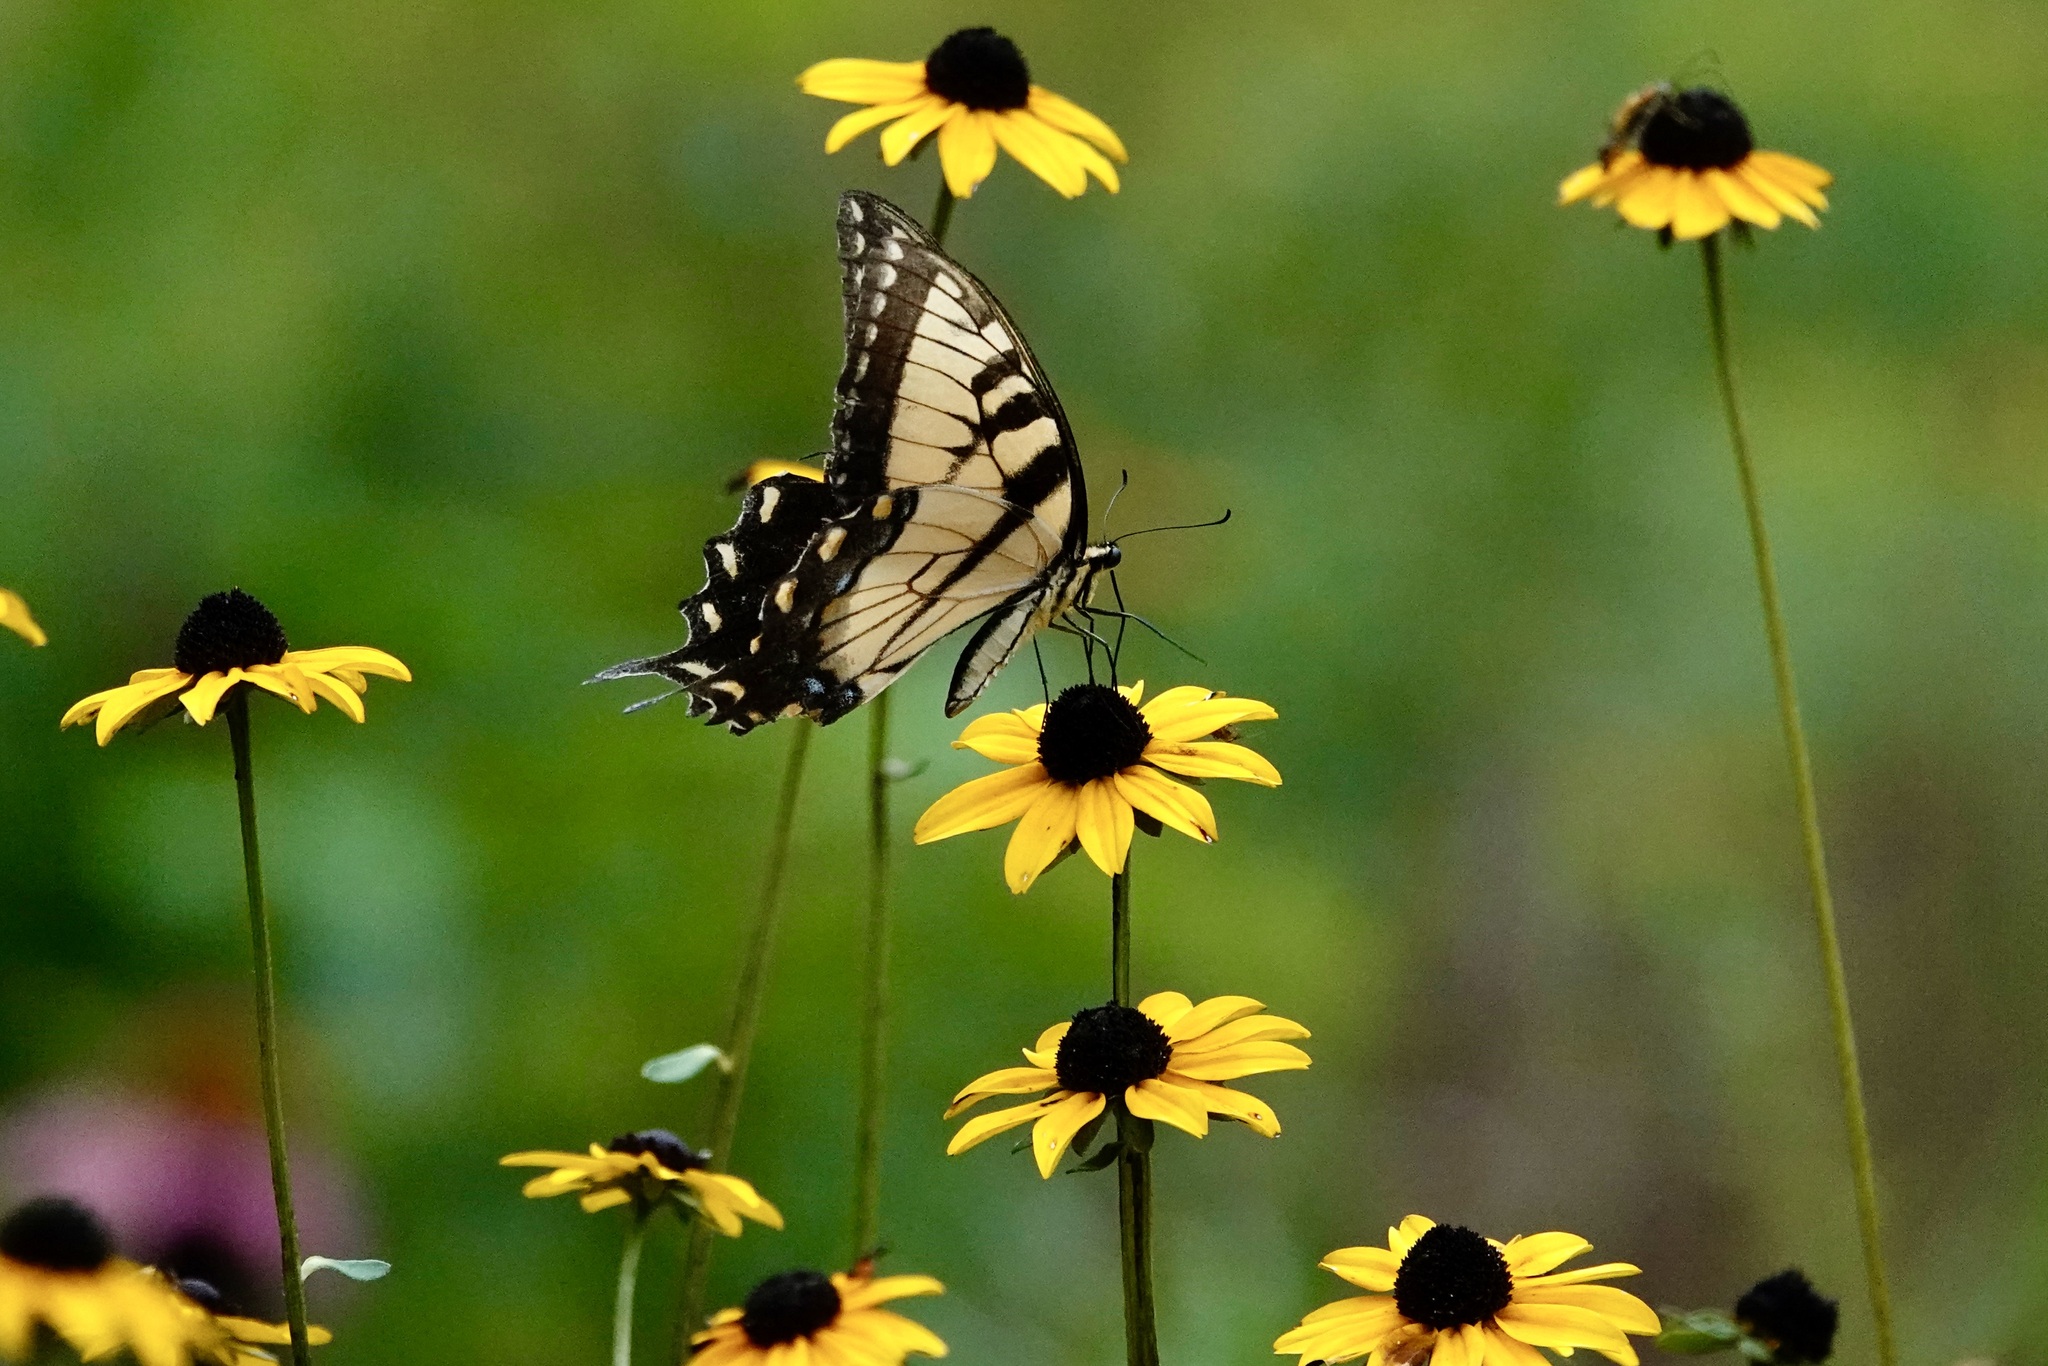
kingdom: Animalia
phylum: Arthropoda
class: Insecta
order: Lepidoptera
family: Papilionidae
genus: Papilio
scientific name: Papilio glaucus
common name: Tiger swallowtail
